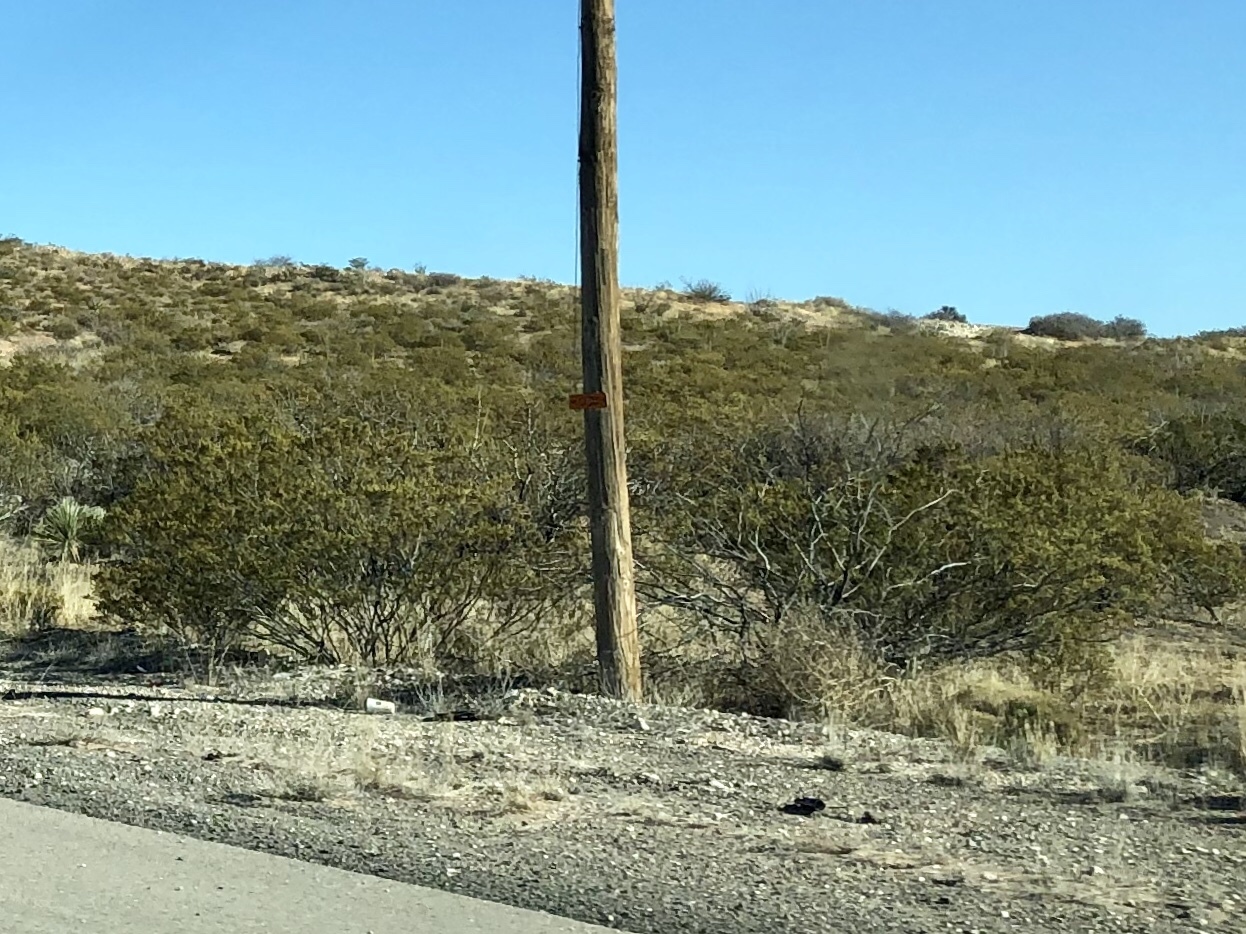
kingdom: Plantae
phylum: Tracheophyta
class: Magnoliopsida
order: Zygophyllales
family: Zygophyllaceae
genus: Larrea
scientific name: Larrea tridentata
